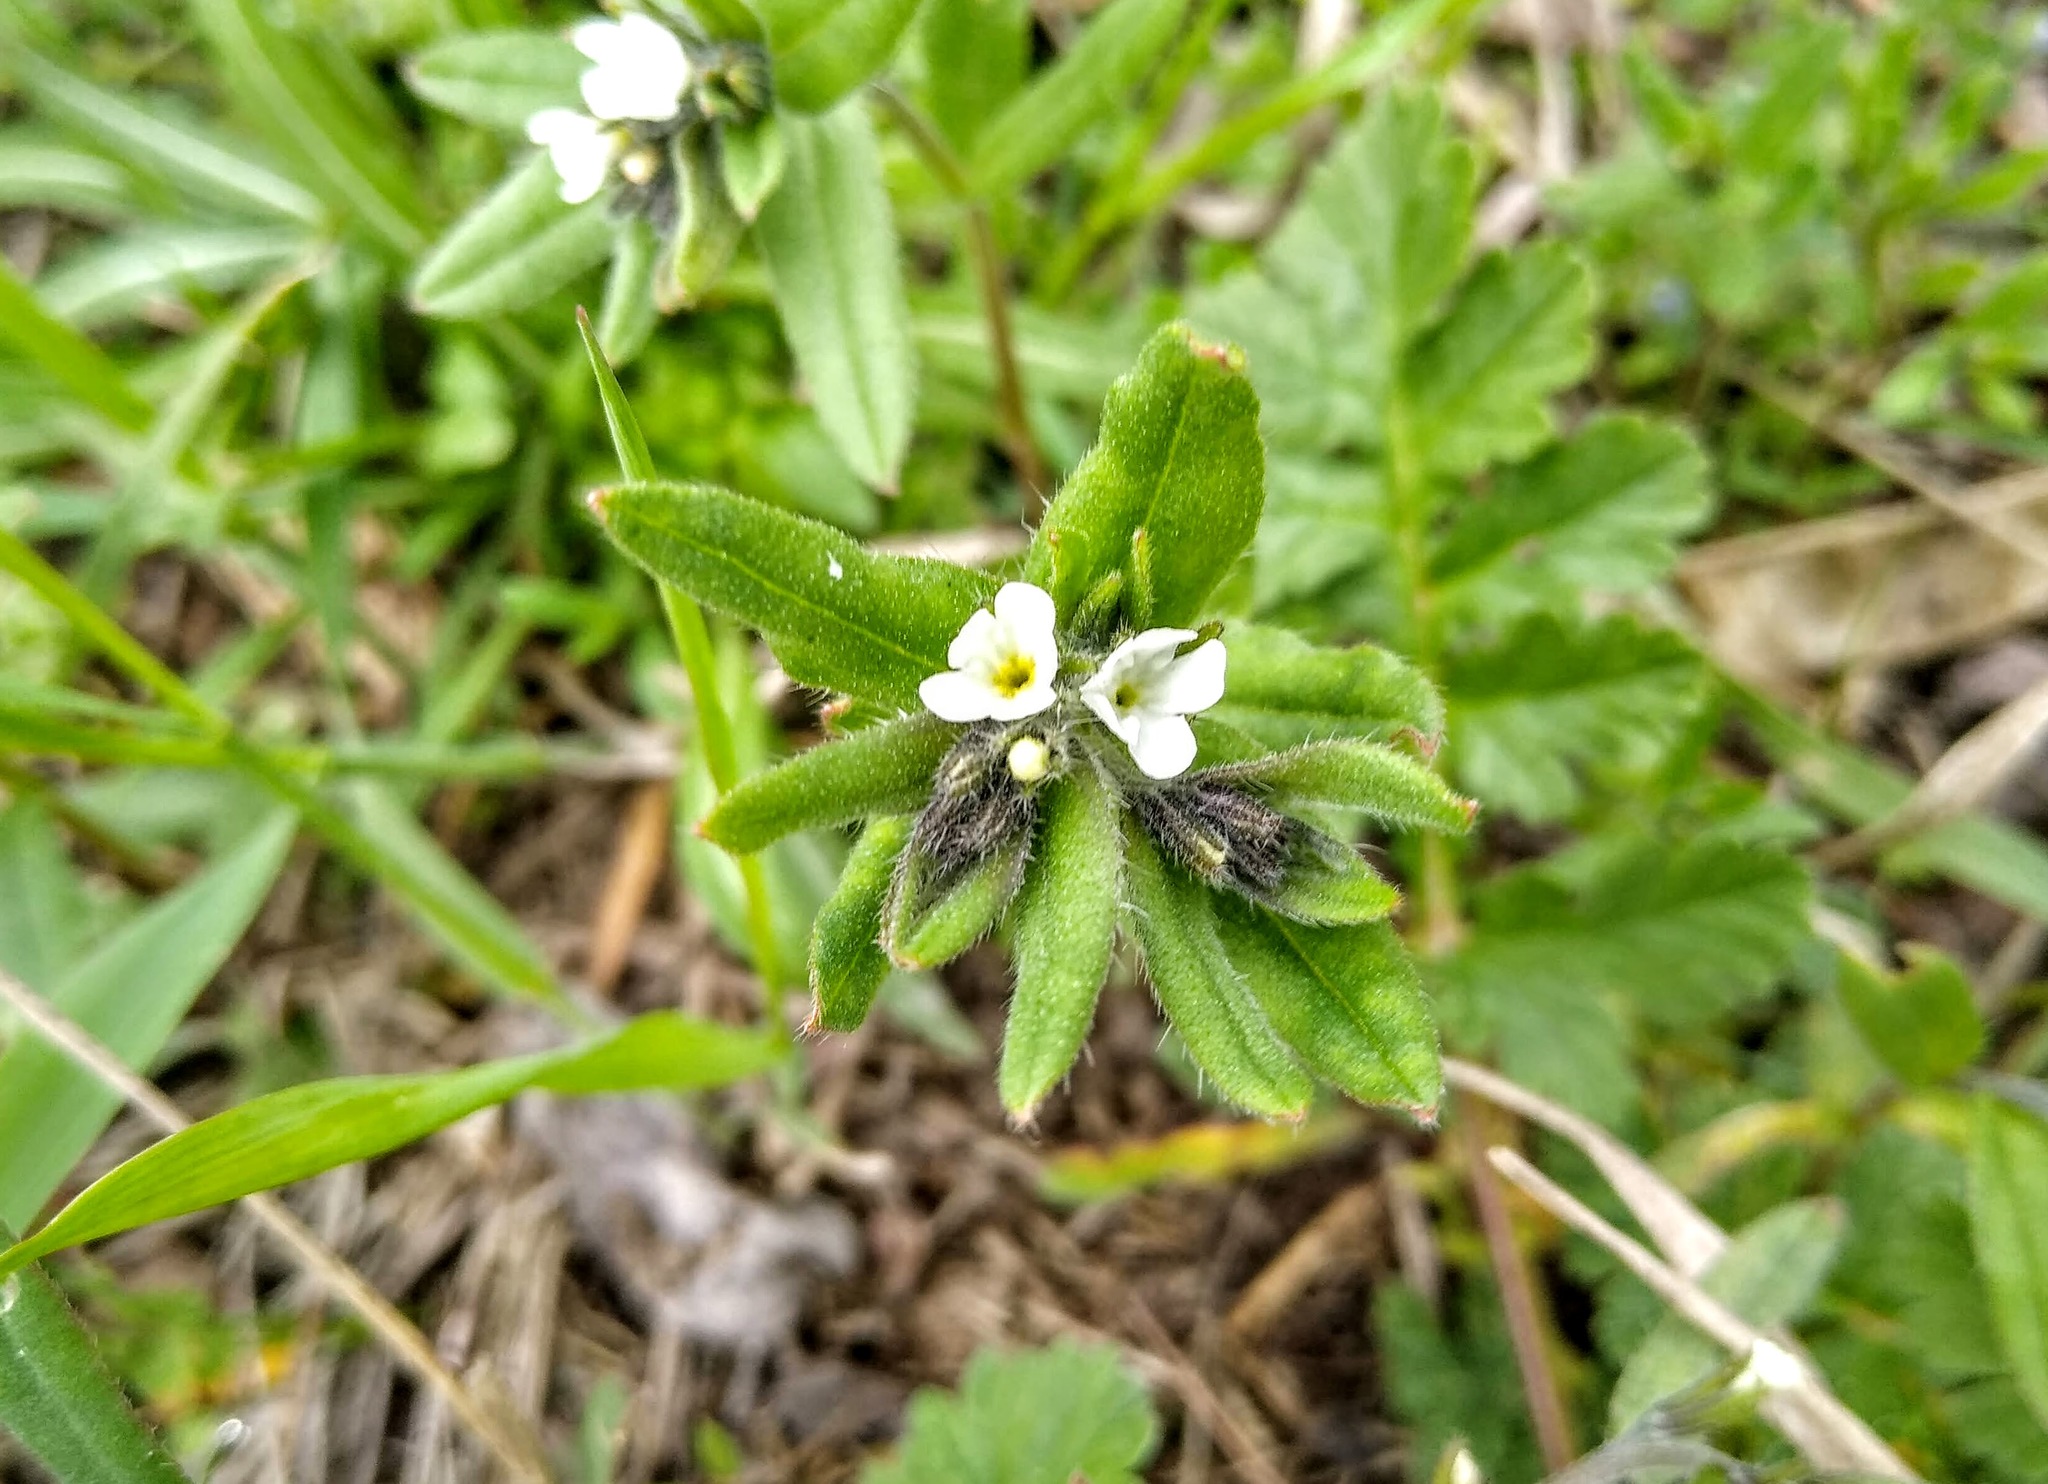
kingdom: Plantae
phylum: Tracheophyta
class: Magnoliopsida
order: Boraginales
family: Boraginaceae
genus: Buglossoides
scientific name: Buglossoides arvensis
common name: Corn gromwell
